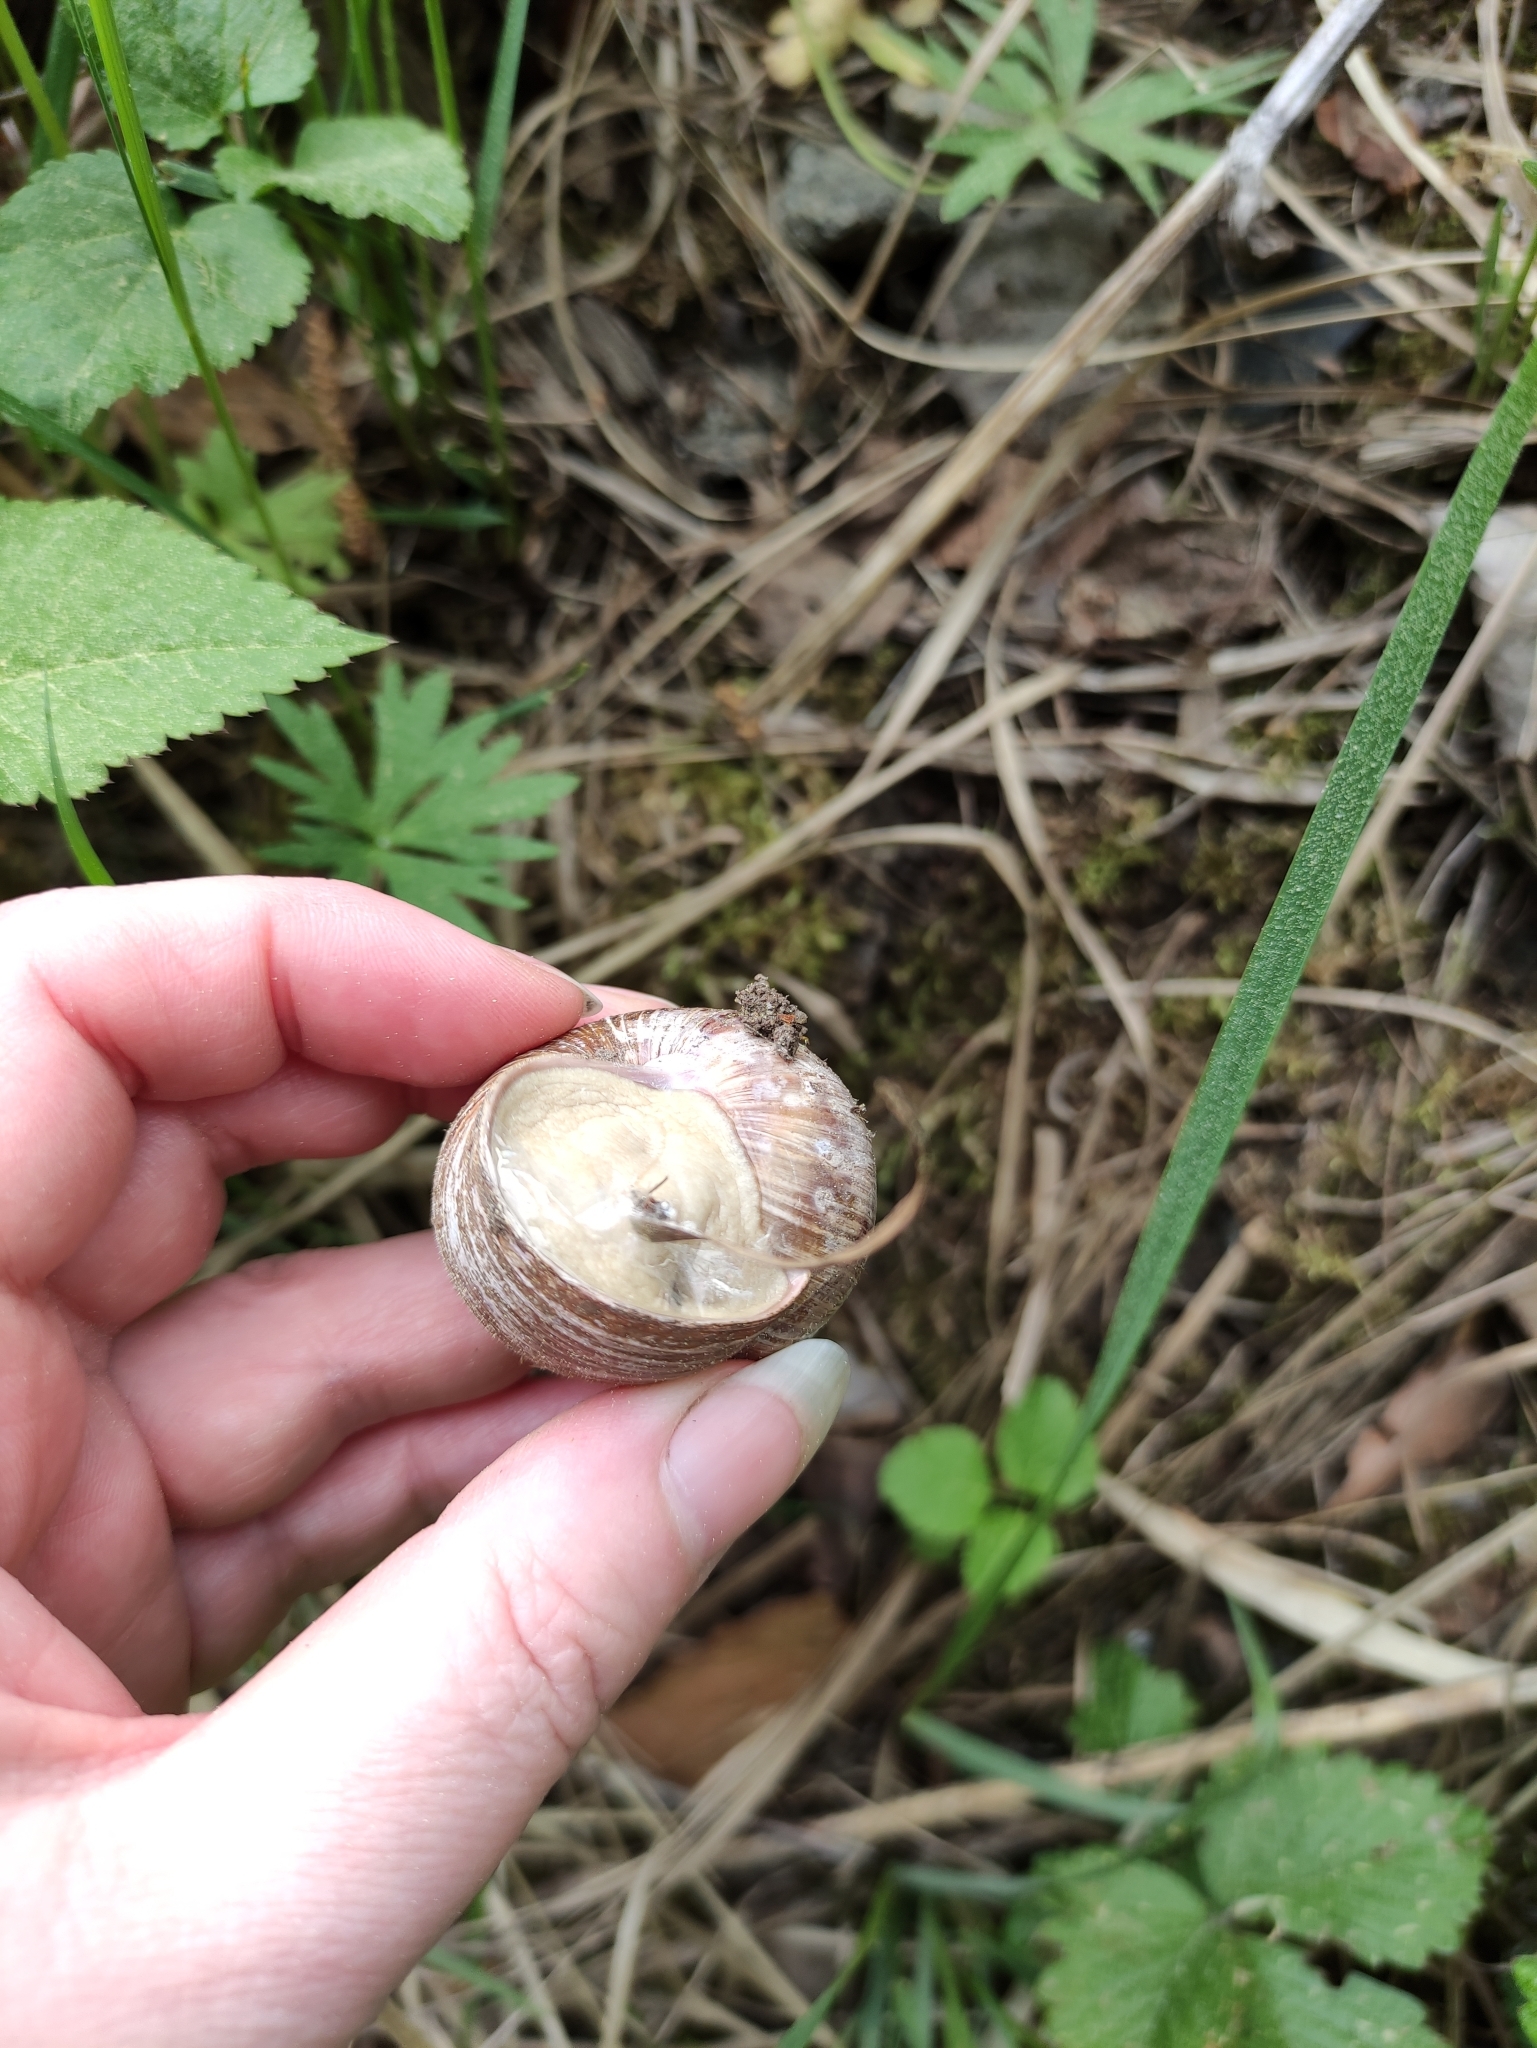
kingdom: Animalia
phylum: Mollusca
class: Gastropoda
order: Stylommatophora
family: Helicidae
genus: Helix
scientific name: Helix pomatia
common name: Roman snail
